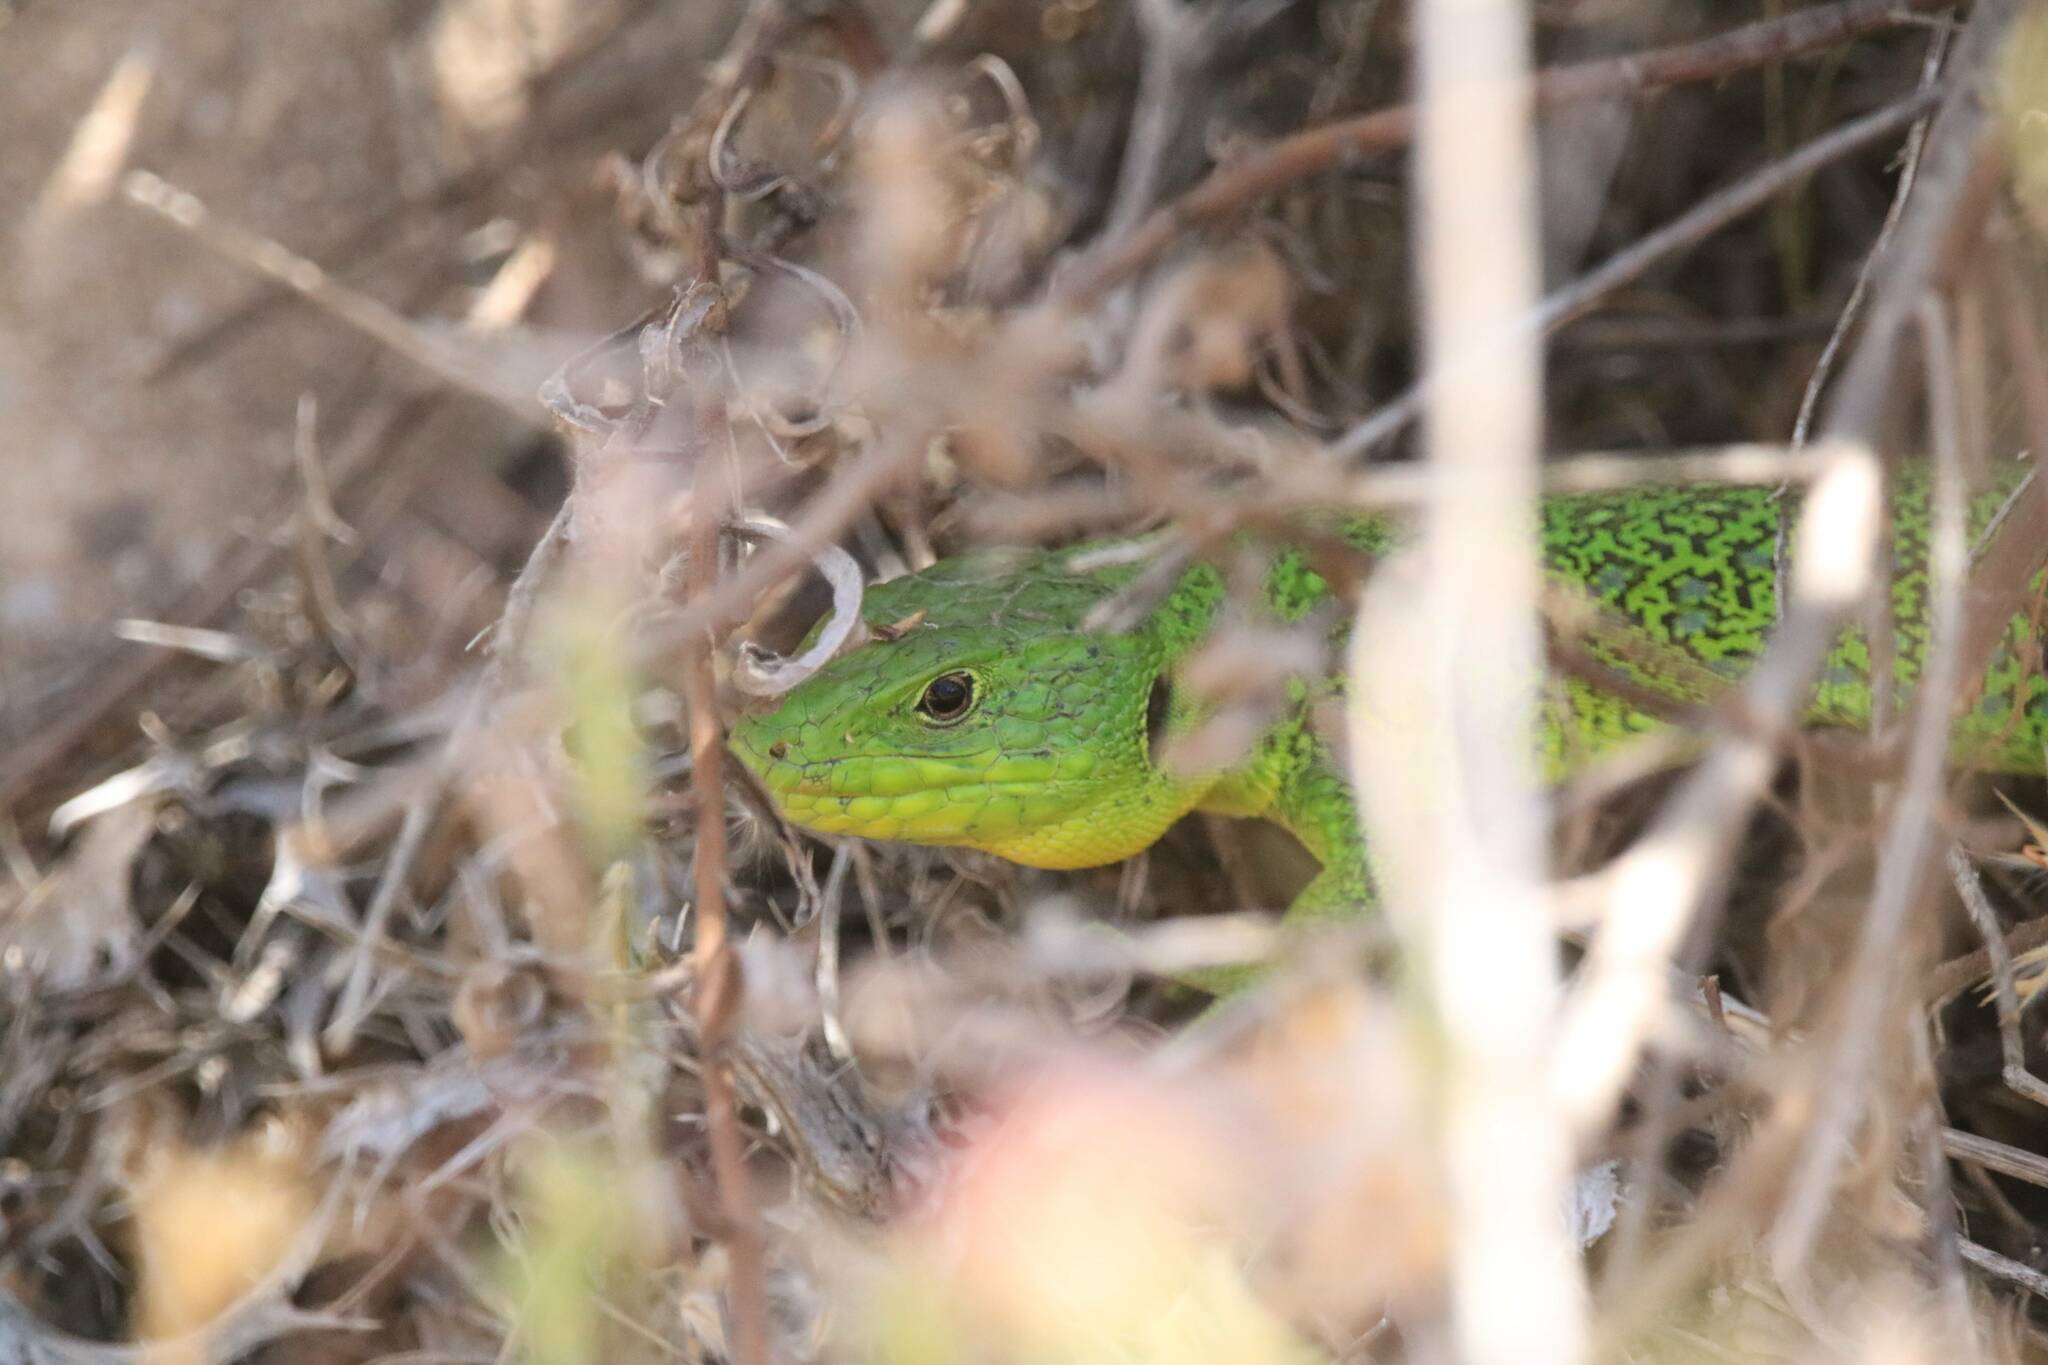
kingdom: Animalia
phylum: Chordata
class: Squamata
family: Lacertidae
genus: Timon
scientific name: Timon pater
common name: North african ocellated lizard
